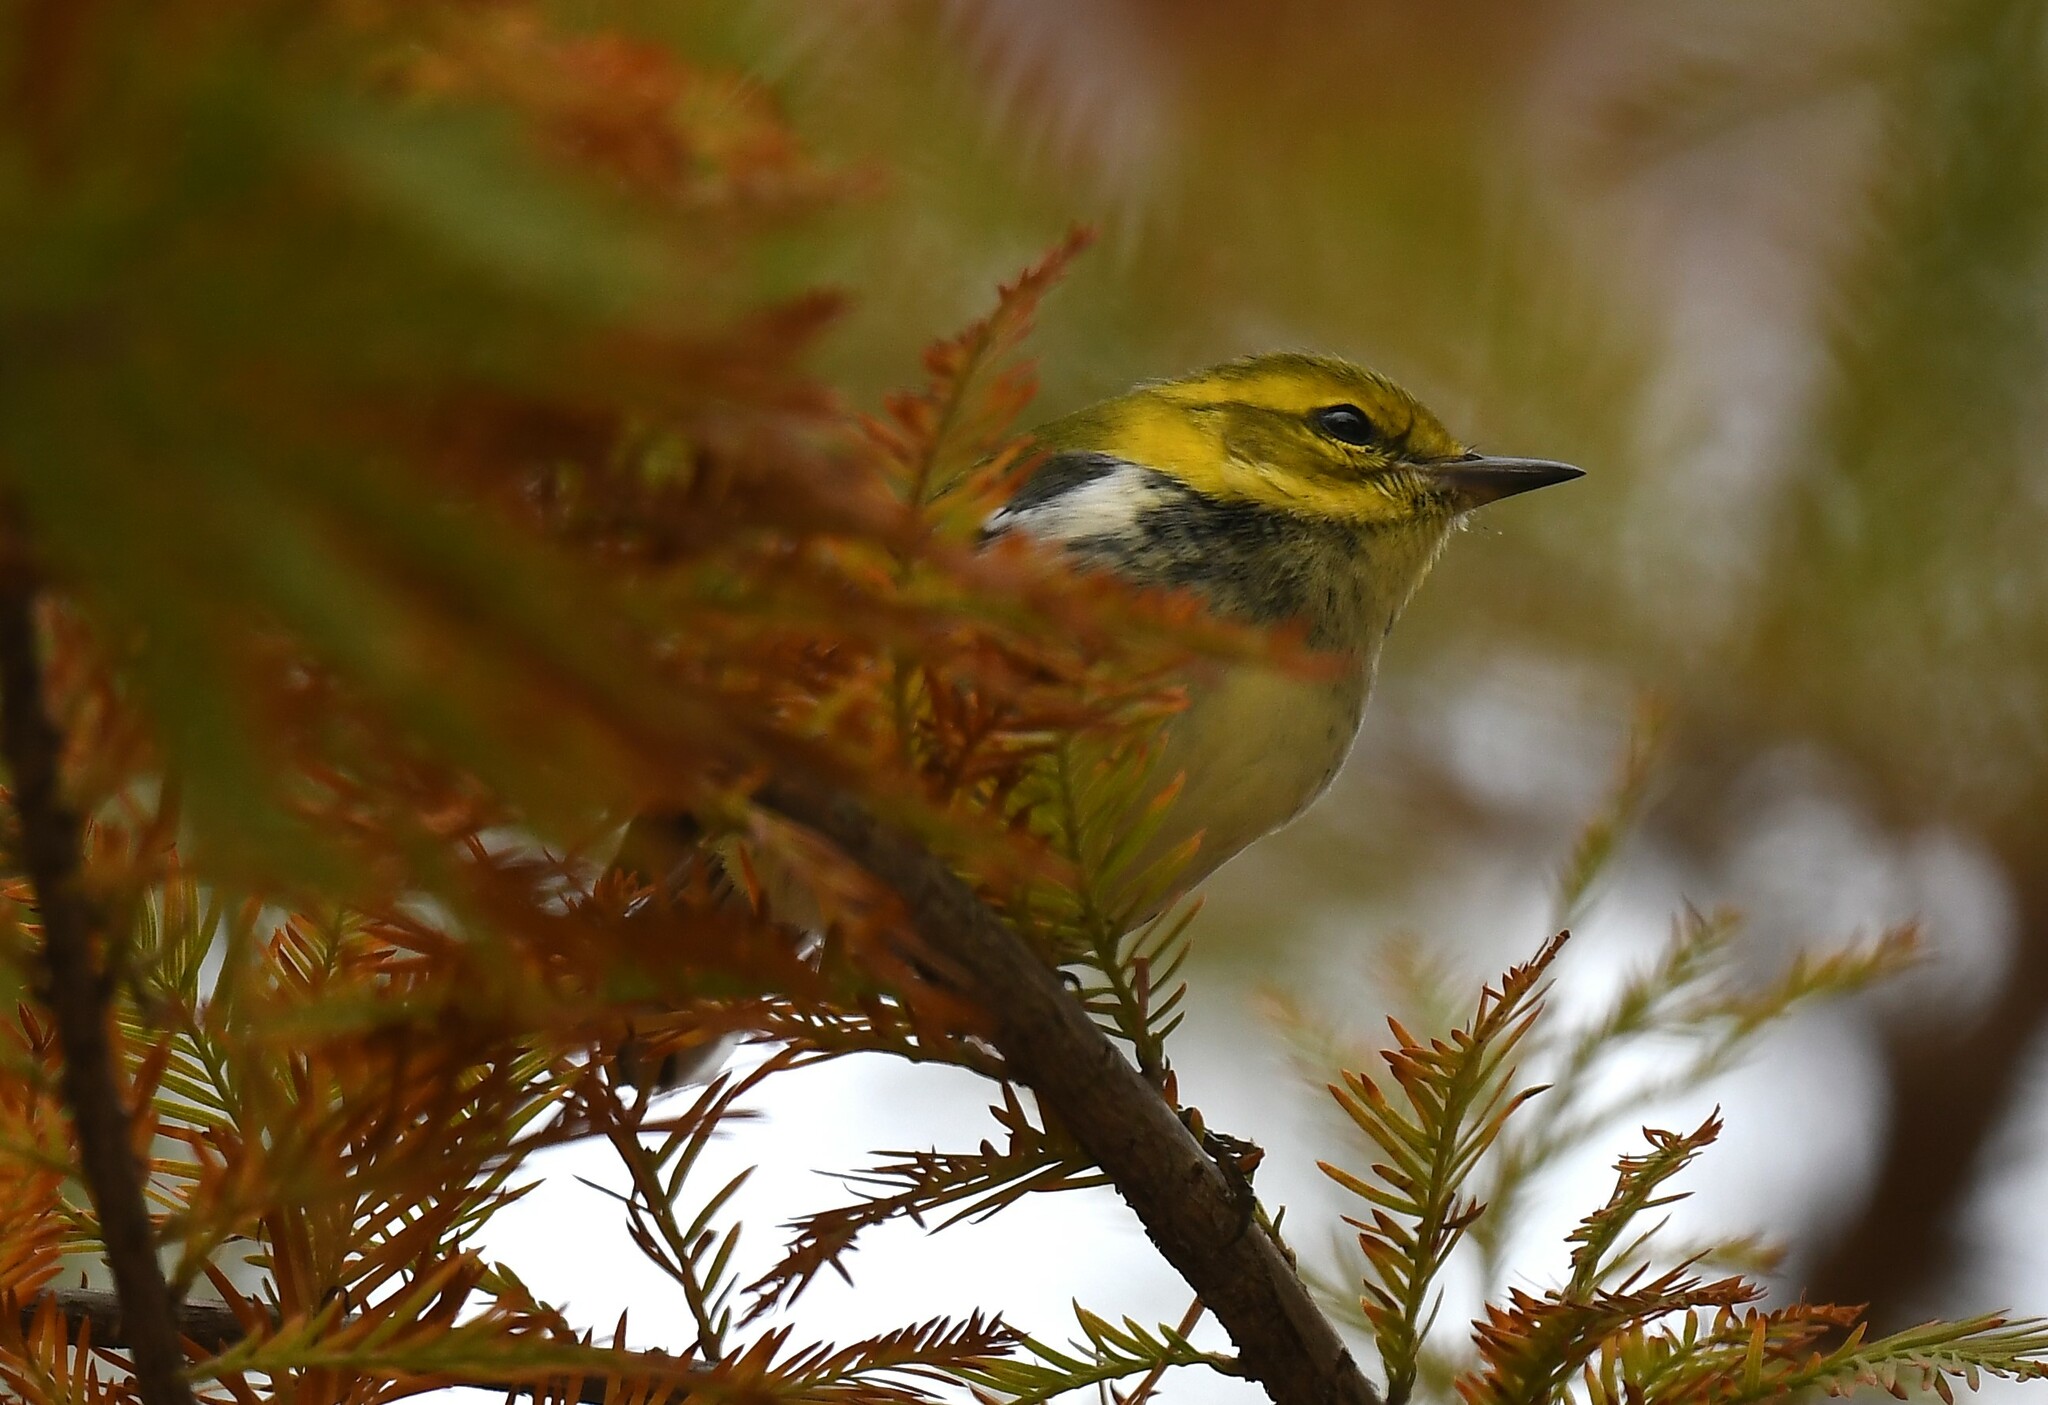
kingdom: Animalia
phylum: Chordata
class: Aves
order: Passeriformes
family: Parulidae
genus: Setophaga
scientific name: Setophaga virens
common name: Black-throated green warbler
